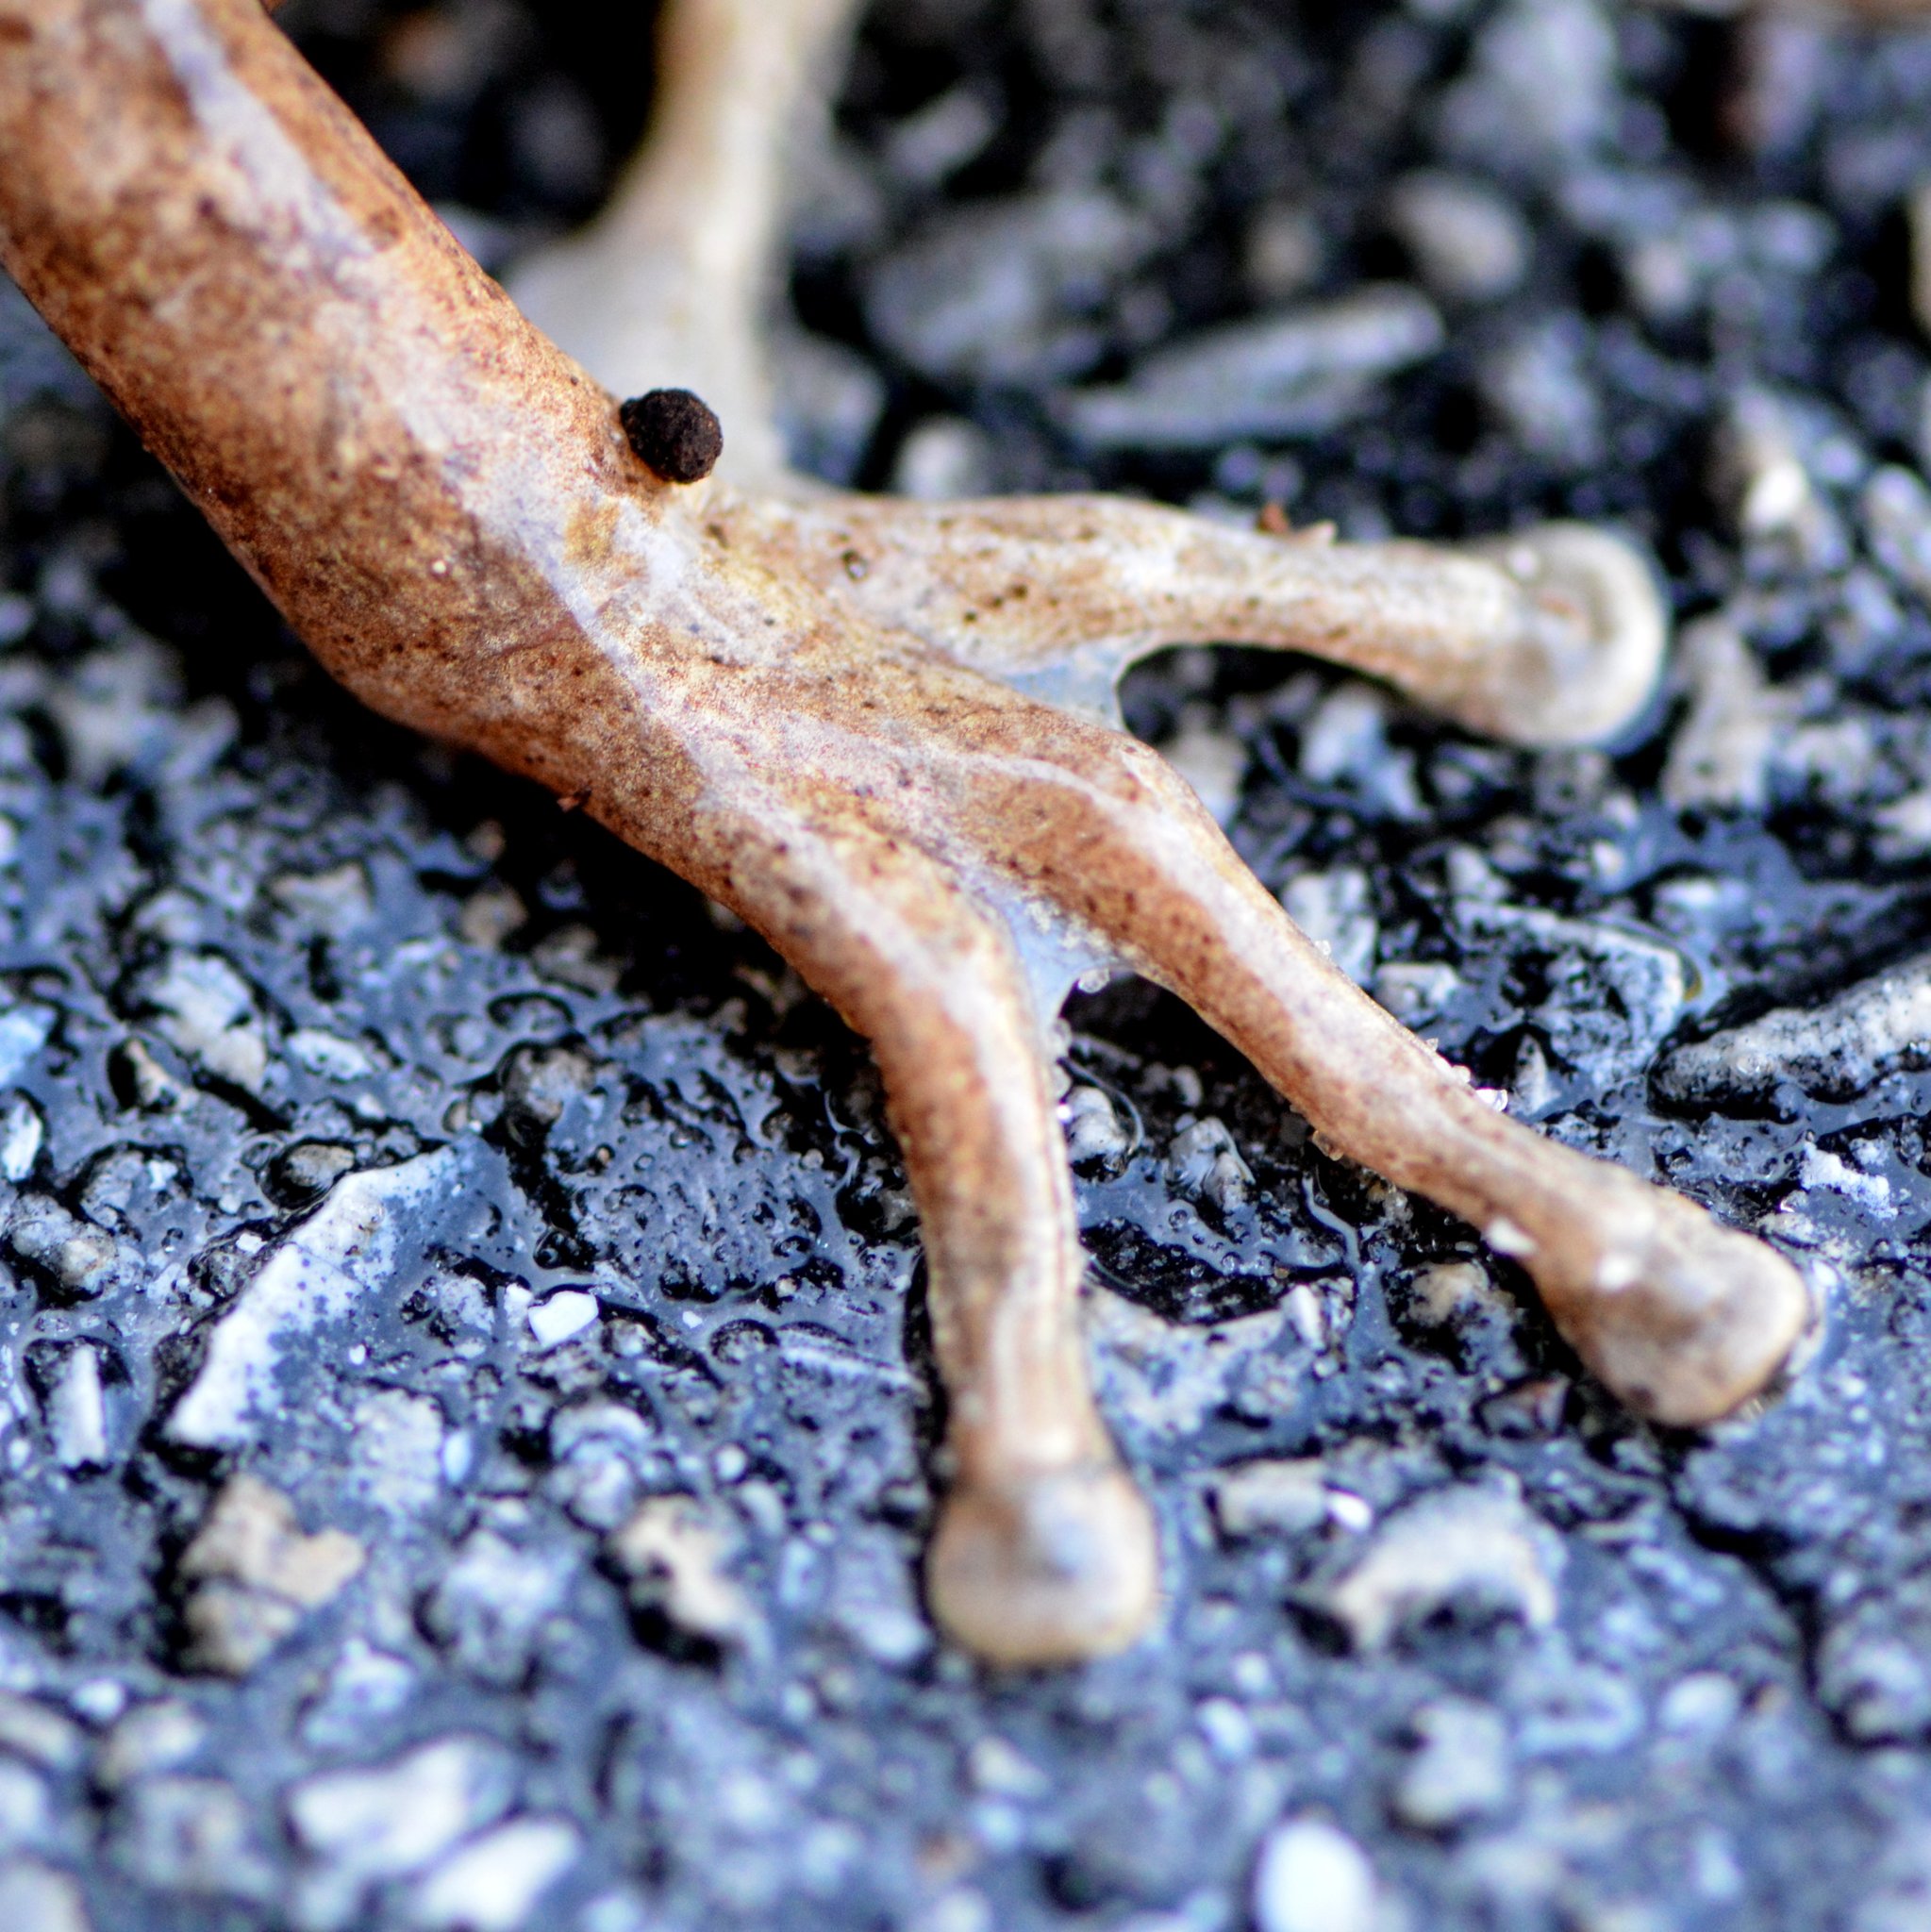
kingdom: Animalia
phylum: Chordata
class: Amphibia
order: Anura
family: Hylidae
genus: Osteopilus
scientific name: Osteopilus septentrionalis
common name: Cuban treefrog
